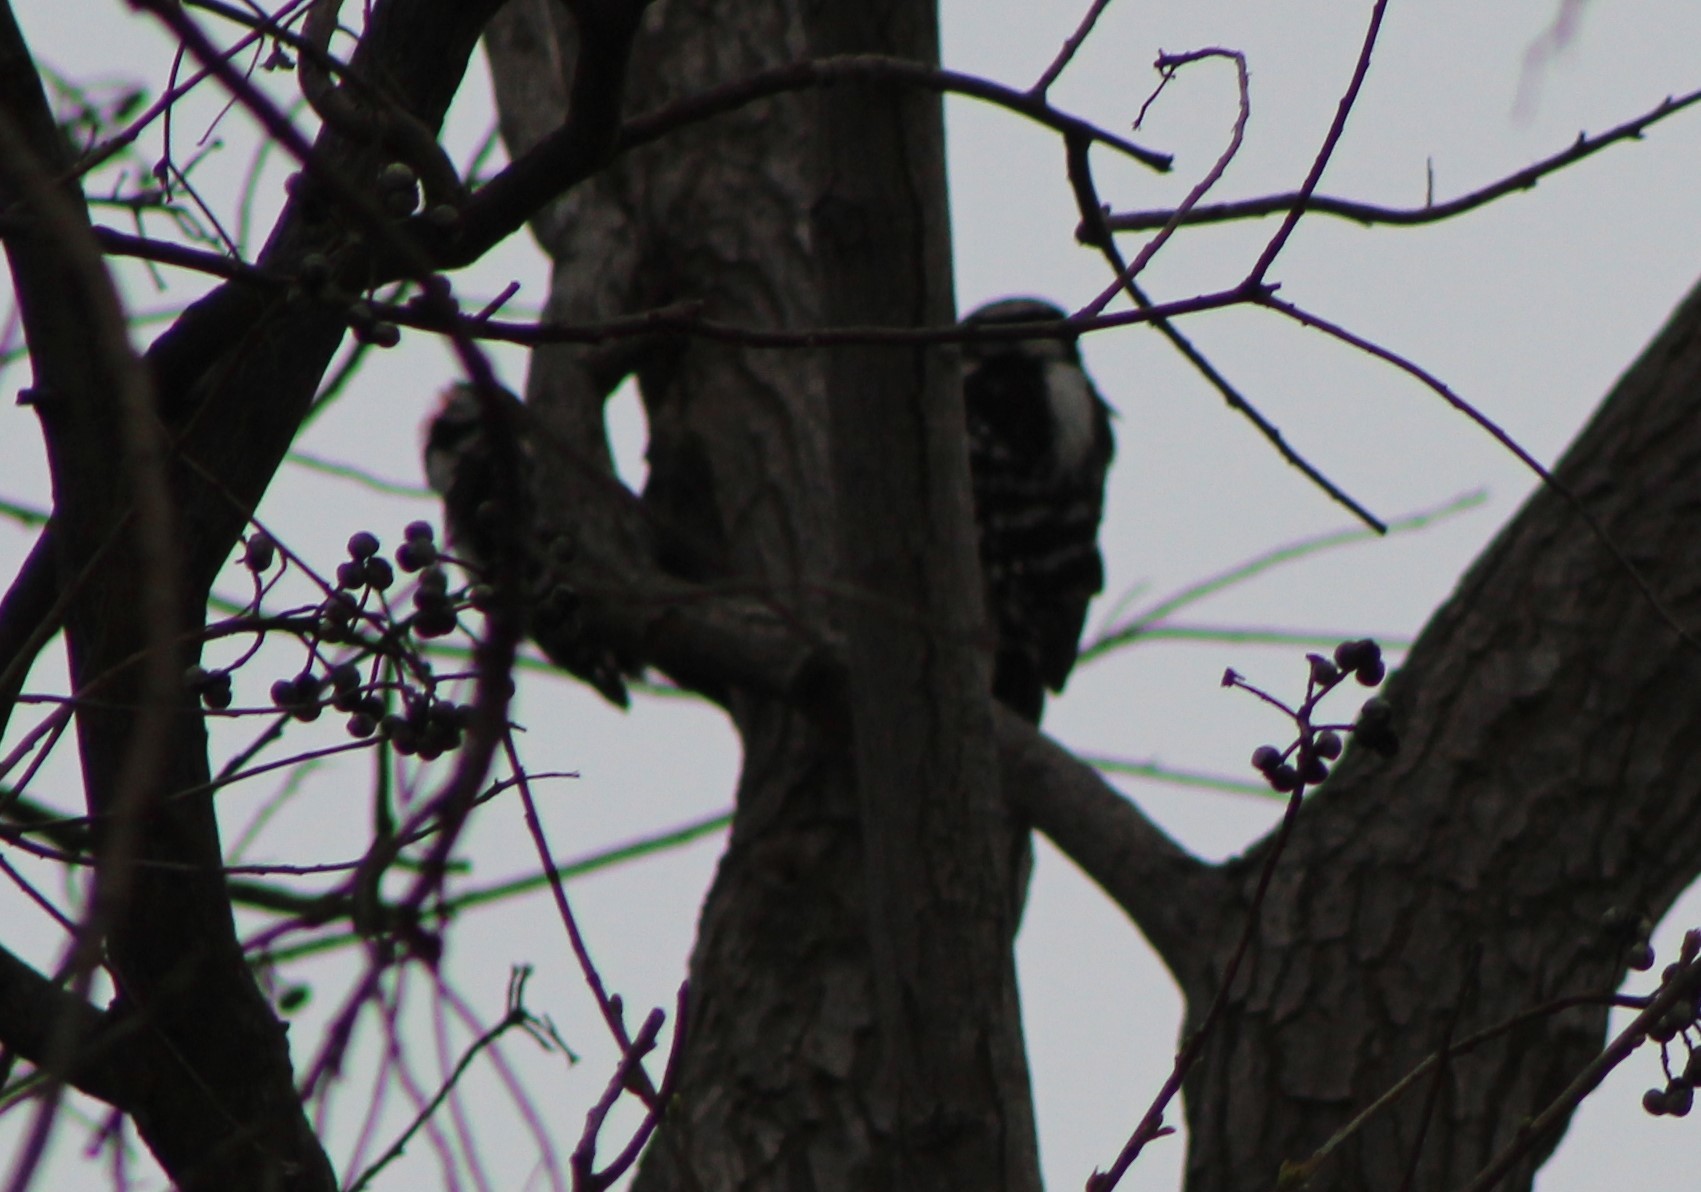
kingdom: Animalia
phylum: Chordata
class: Aves
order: Piciformes
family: Picidae
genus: Dryobates
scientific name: Dryobates pubescens
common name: Downy woodpecker
